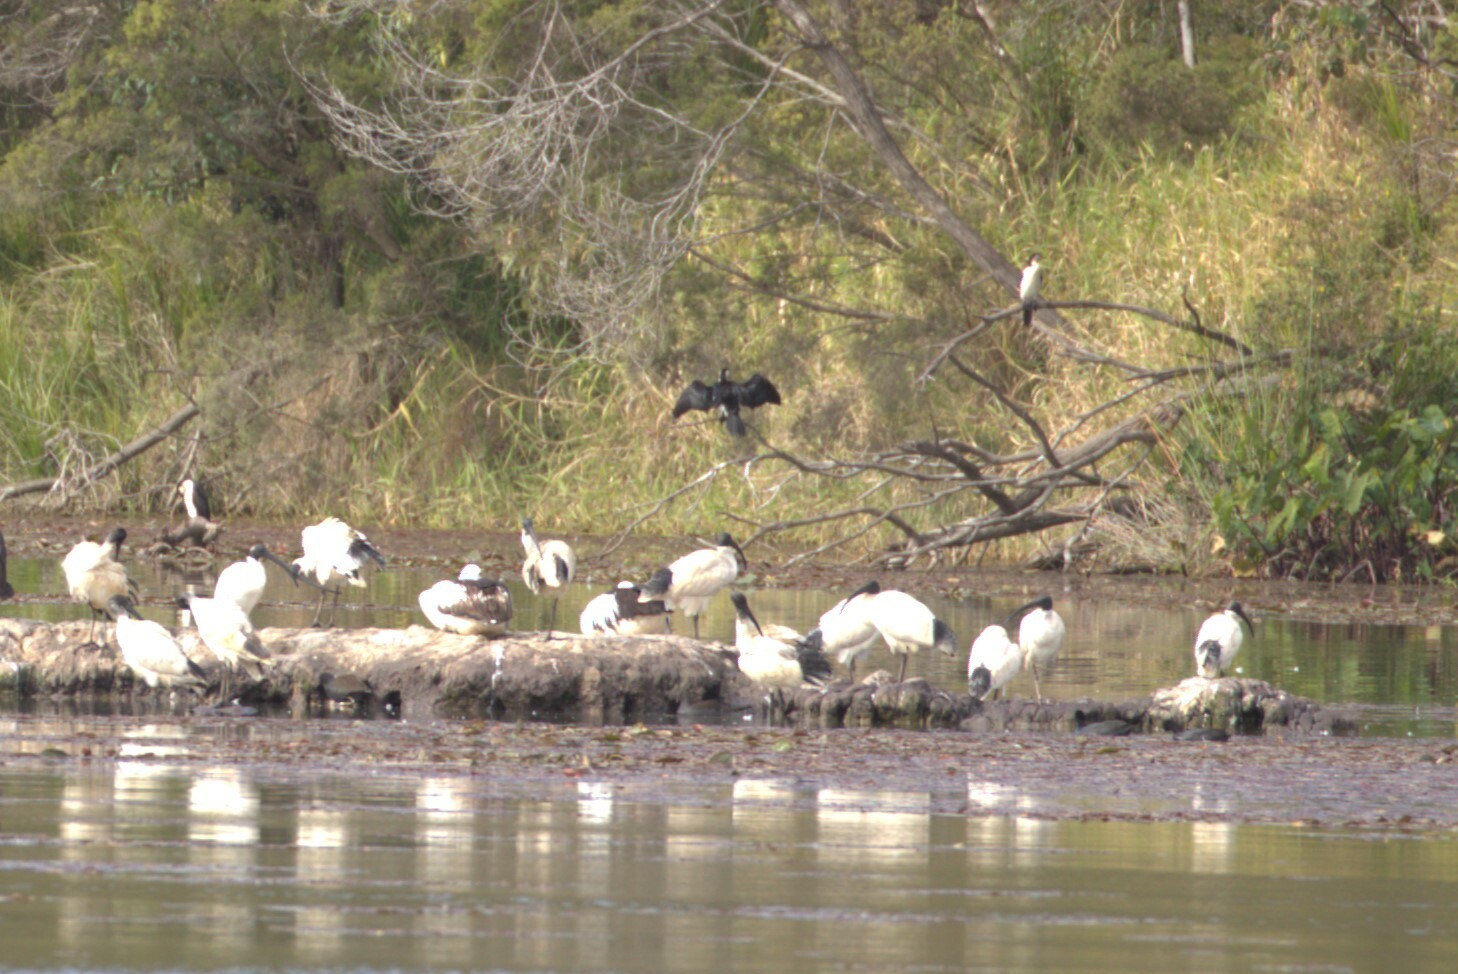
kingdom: Animalia
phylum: Chordata
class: Aves
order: Pelecaniformes
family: Threskiornithidae
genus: Threskiornis
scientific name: Threskiornis molucca
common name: Australian white ibis
